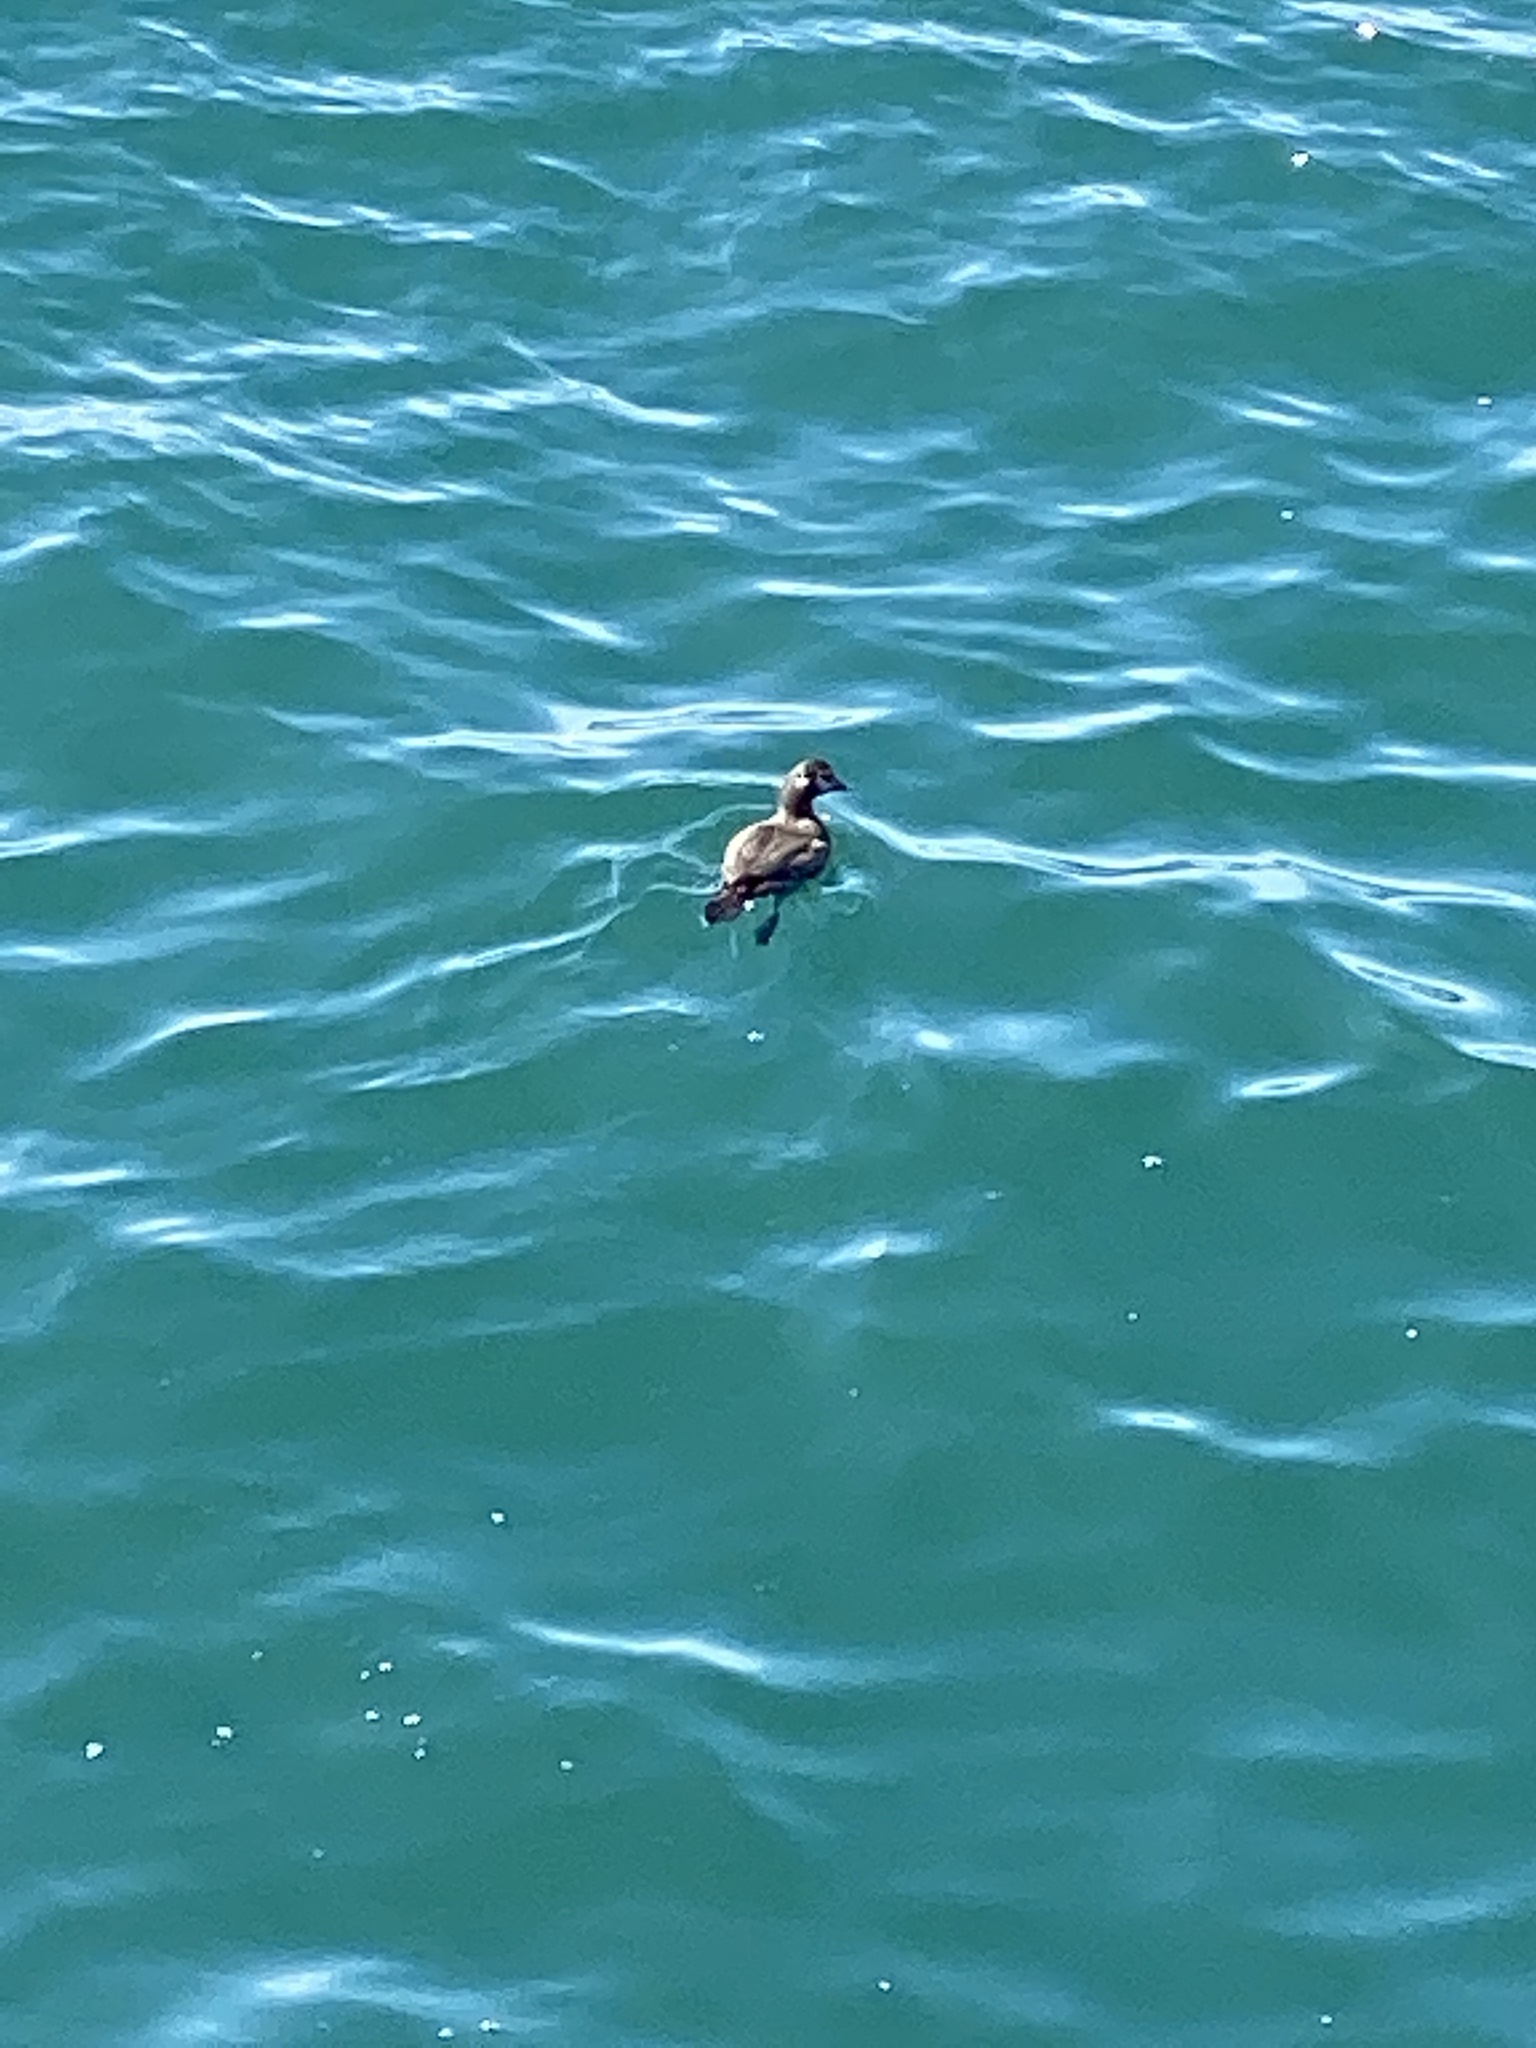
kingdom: Animalia
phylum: Chordata
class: Aves
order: Anseriformes
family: Anatidae
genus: Histrionicus
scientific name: Histrionicus histrionicus
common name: Harlequin duck
